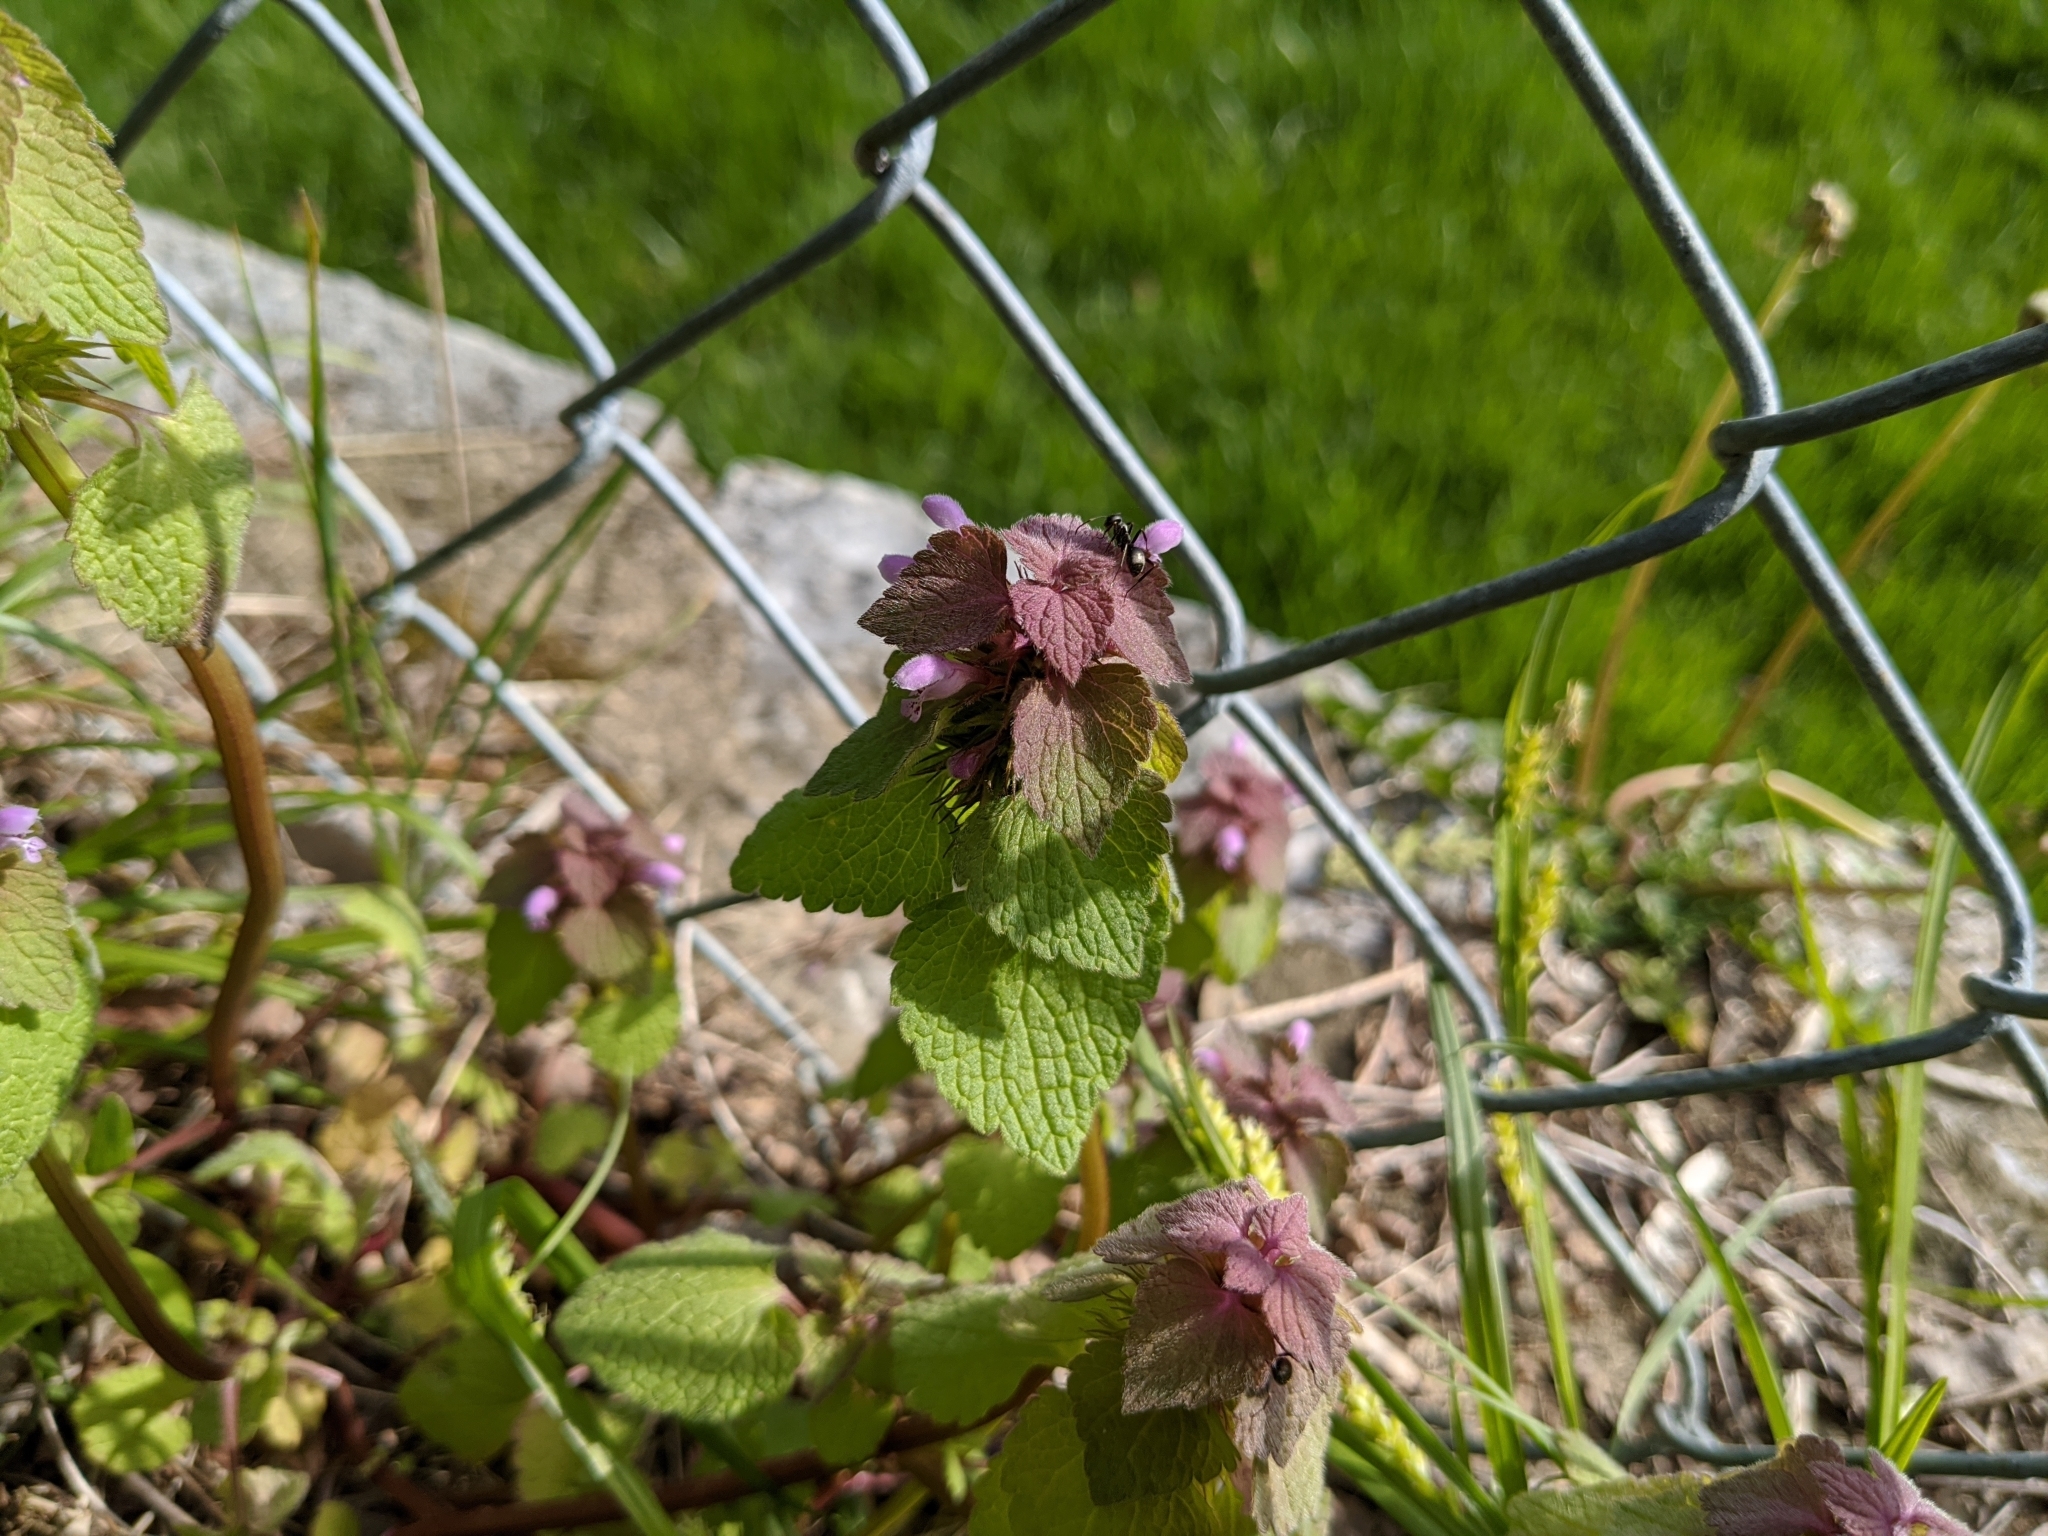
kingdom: Plantae
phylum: Tracheophyta
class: Magnoliopsida
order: Lamiales
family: Lamiaceae
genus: Lamium
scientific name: Lamium purpureum
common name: Red dead-nettle
